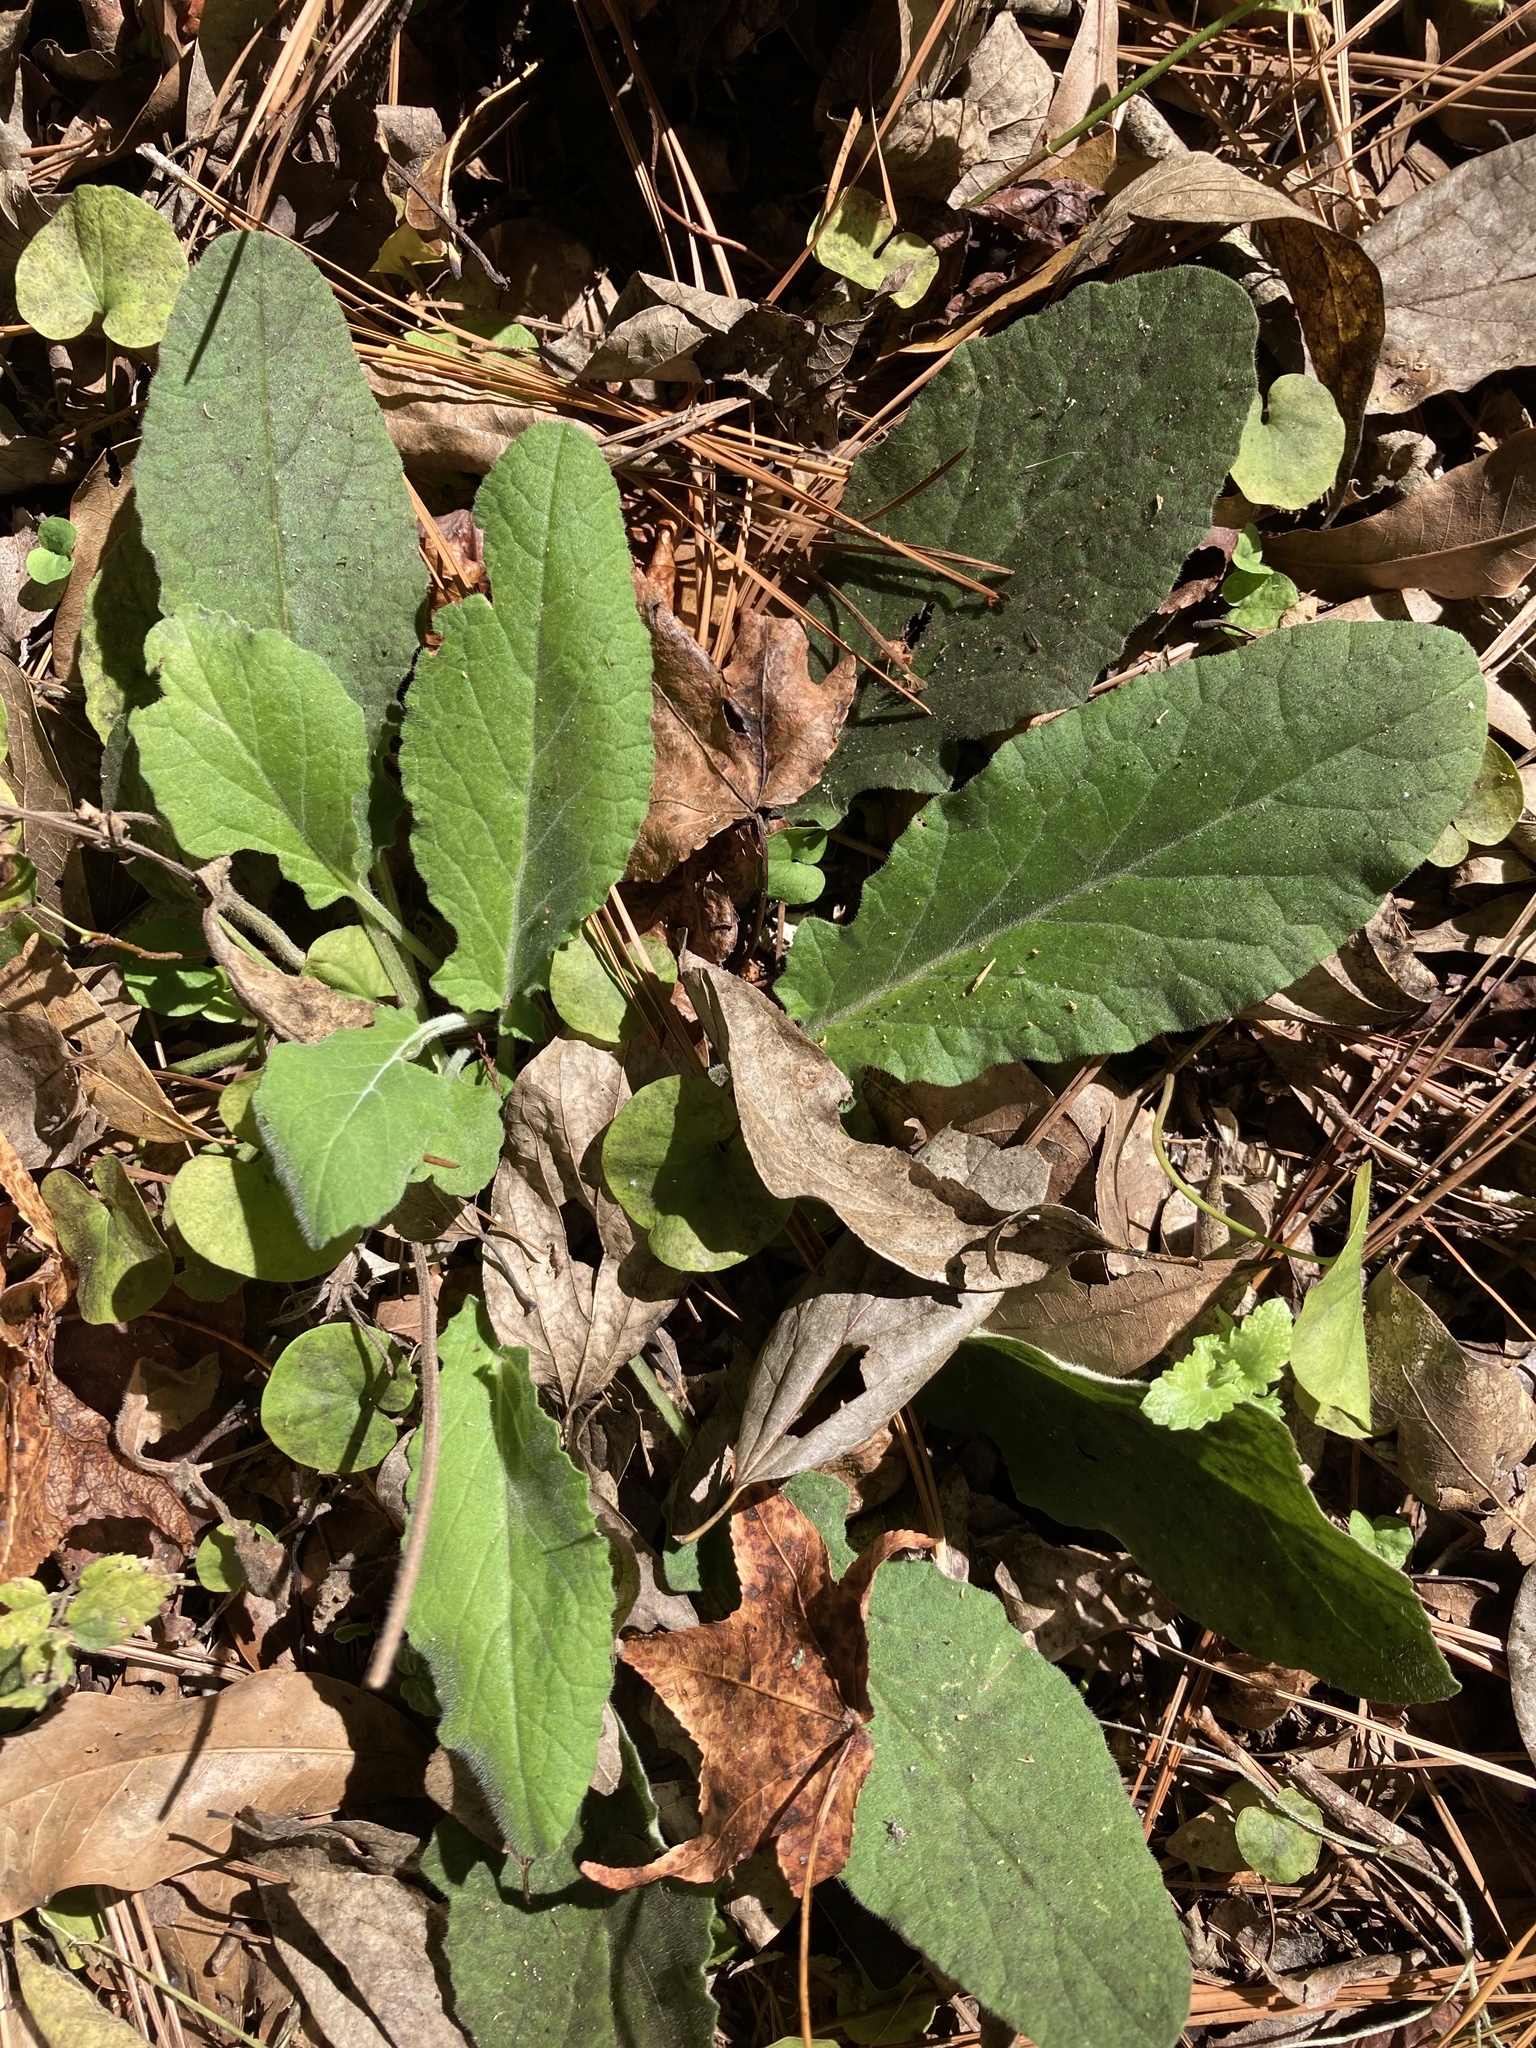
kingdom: Plantae
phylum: Tracheophyta
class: Magnoliopsida
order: Lamiales
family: Lamiaceae
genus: Salvia
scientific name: Salvia lyrata
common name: Cancerweed
